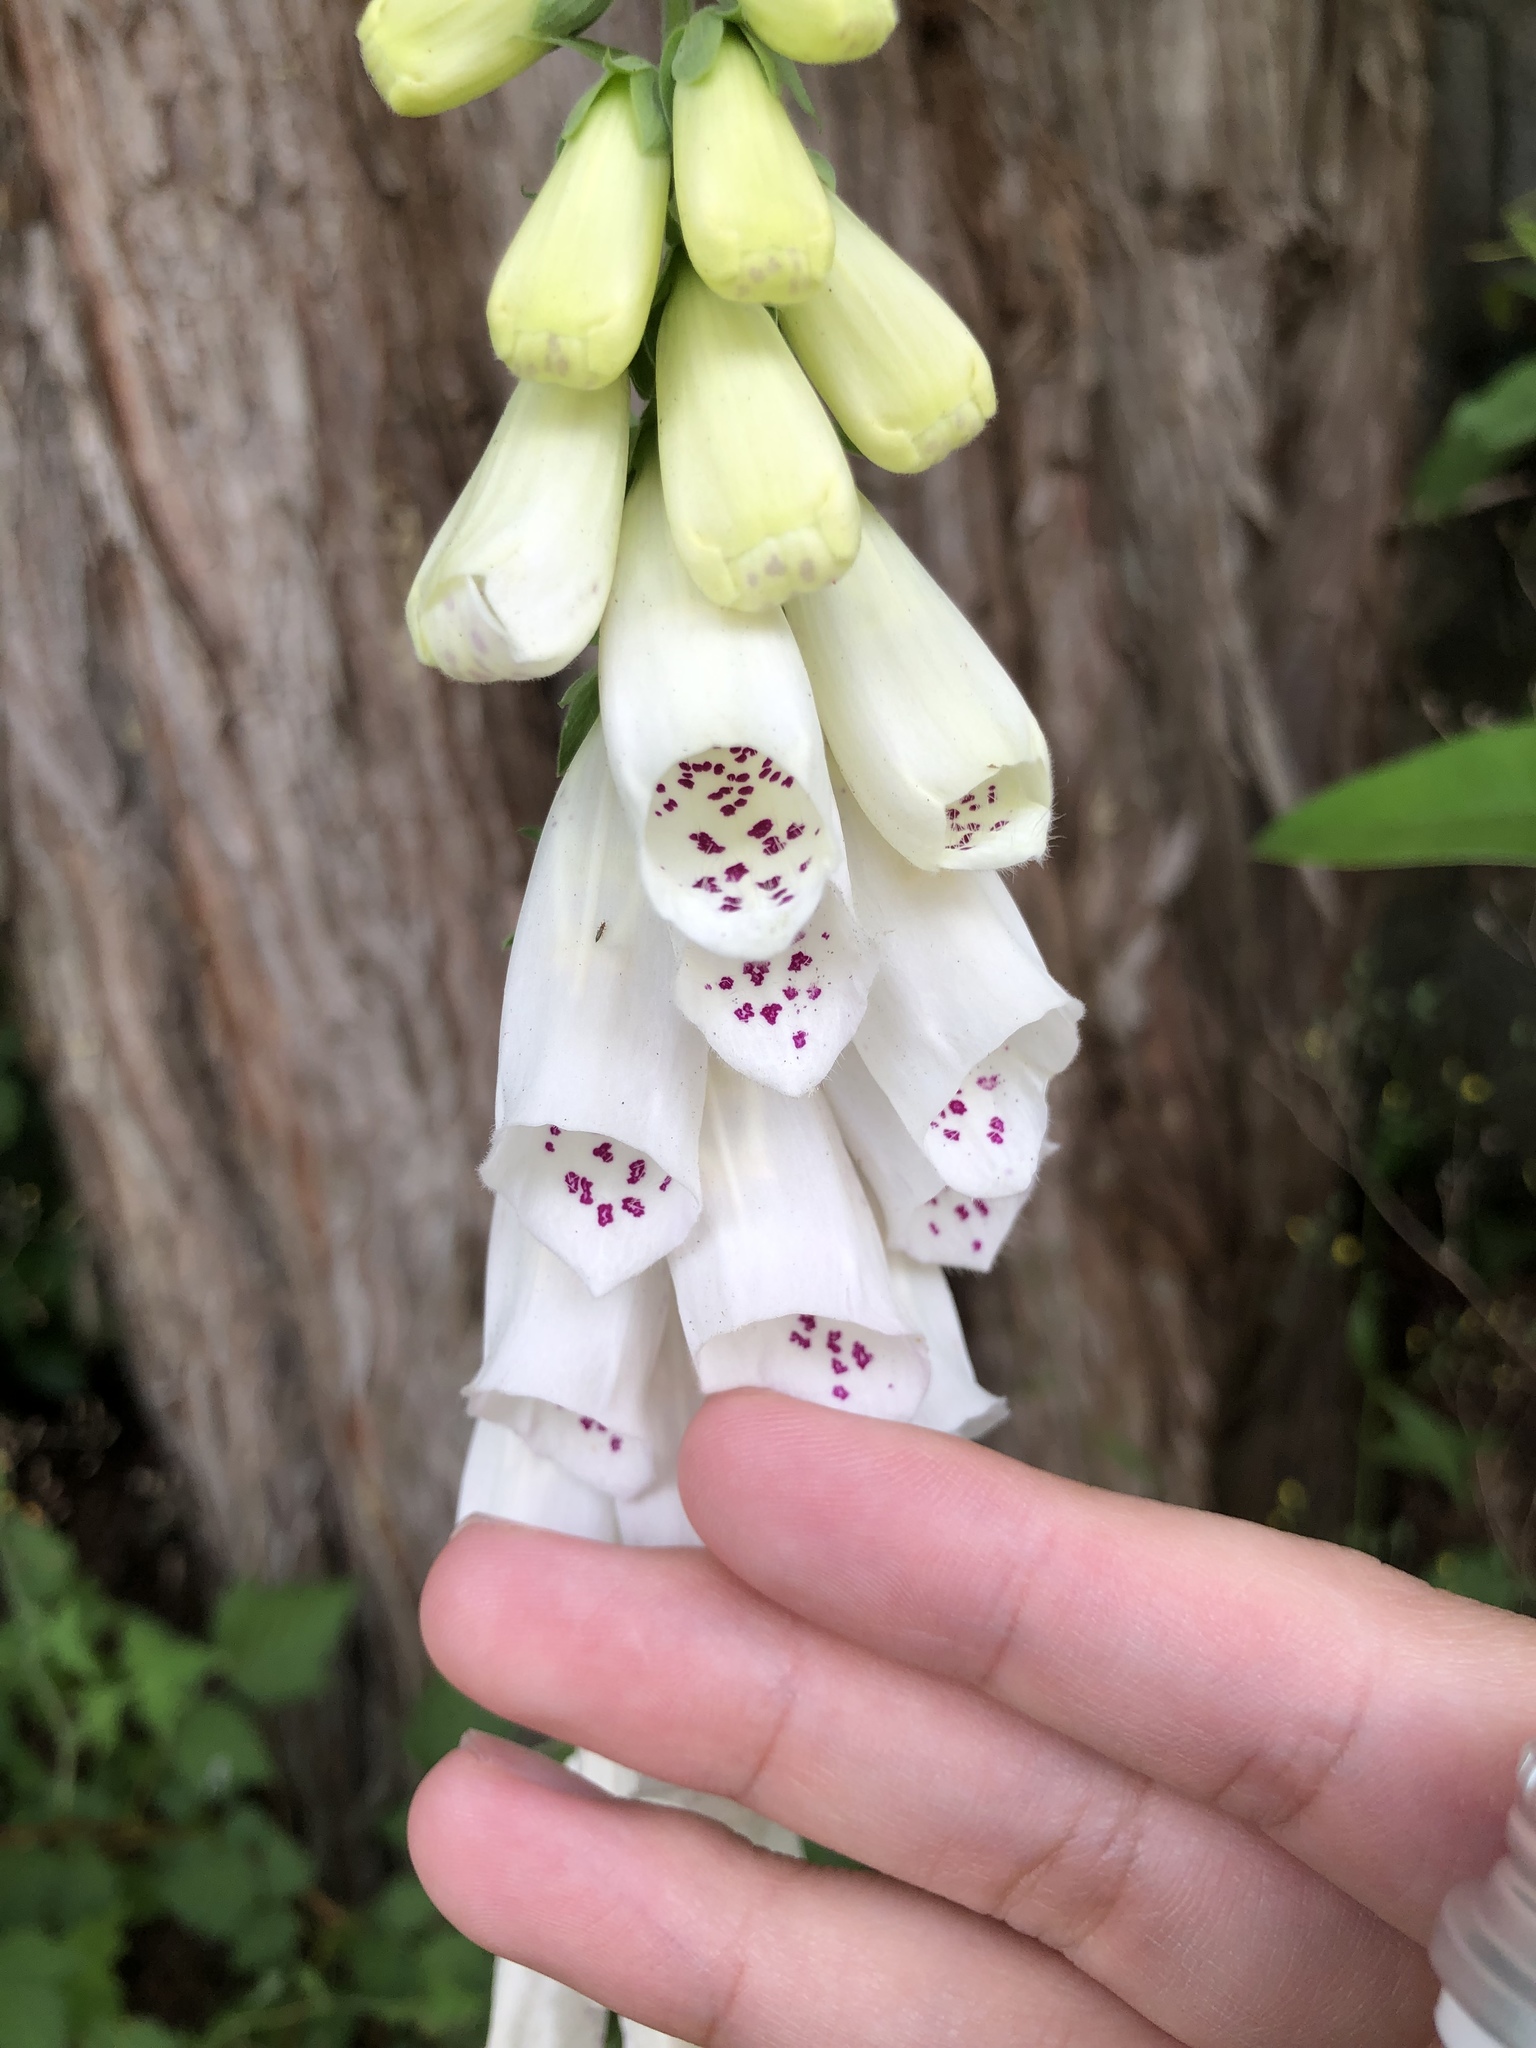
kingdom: Plantae
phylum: Tracheophyta
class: Magnoliopsida
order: Lamiales
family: Plantaginaceae
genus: Digitalis
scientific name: Digitalis purpurea
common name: Foxglove
